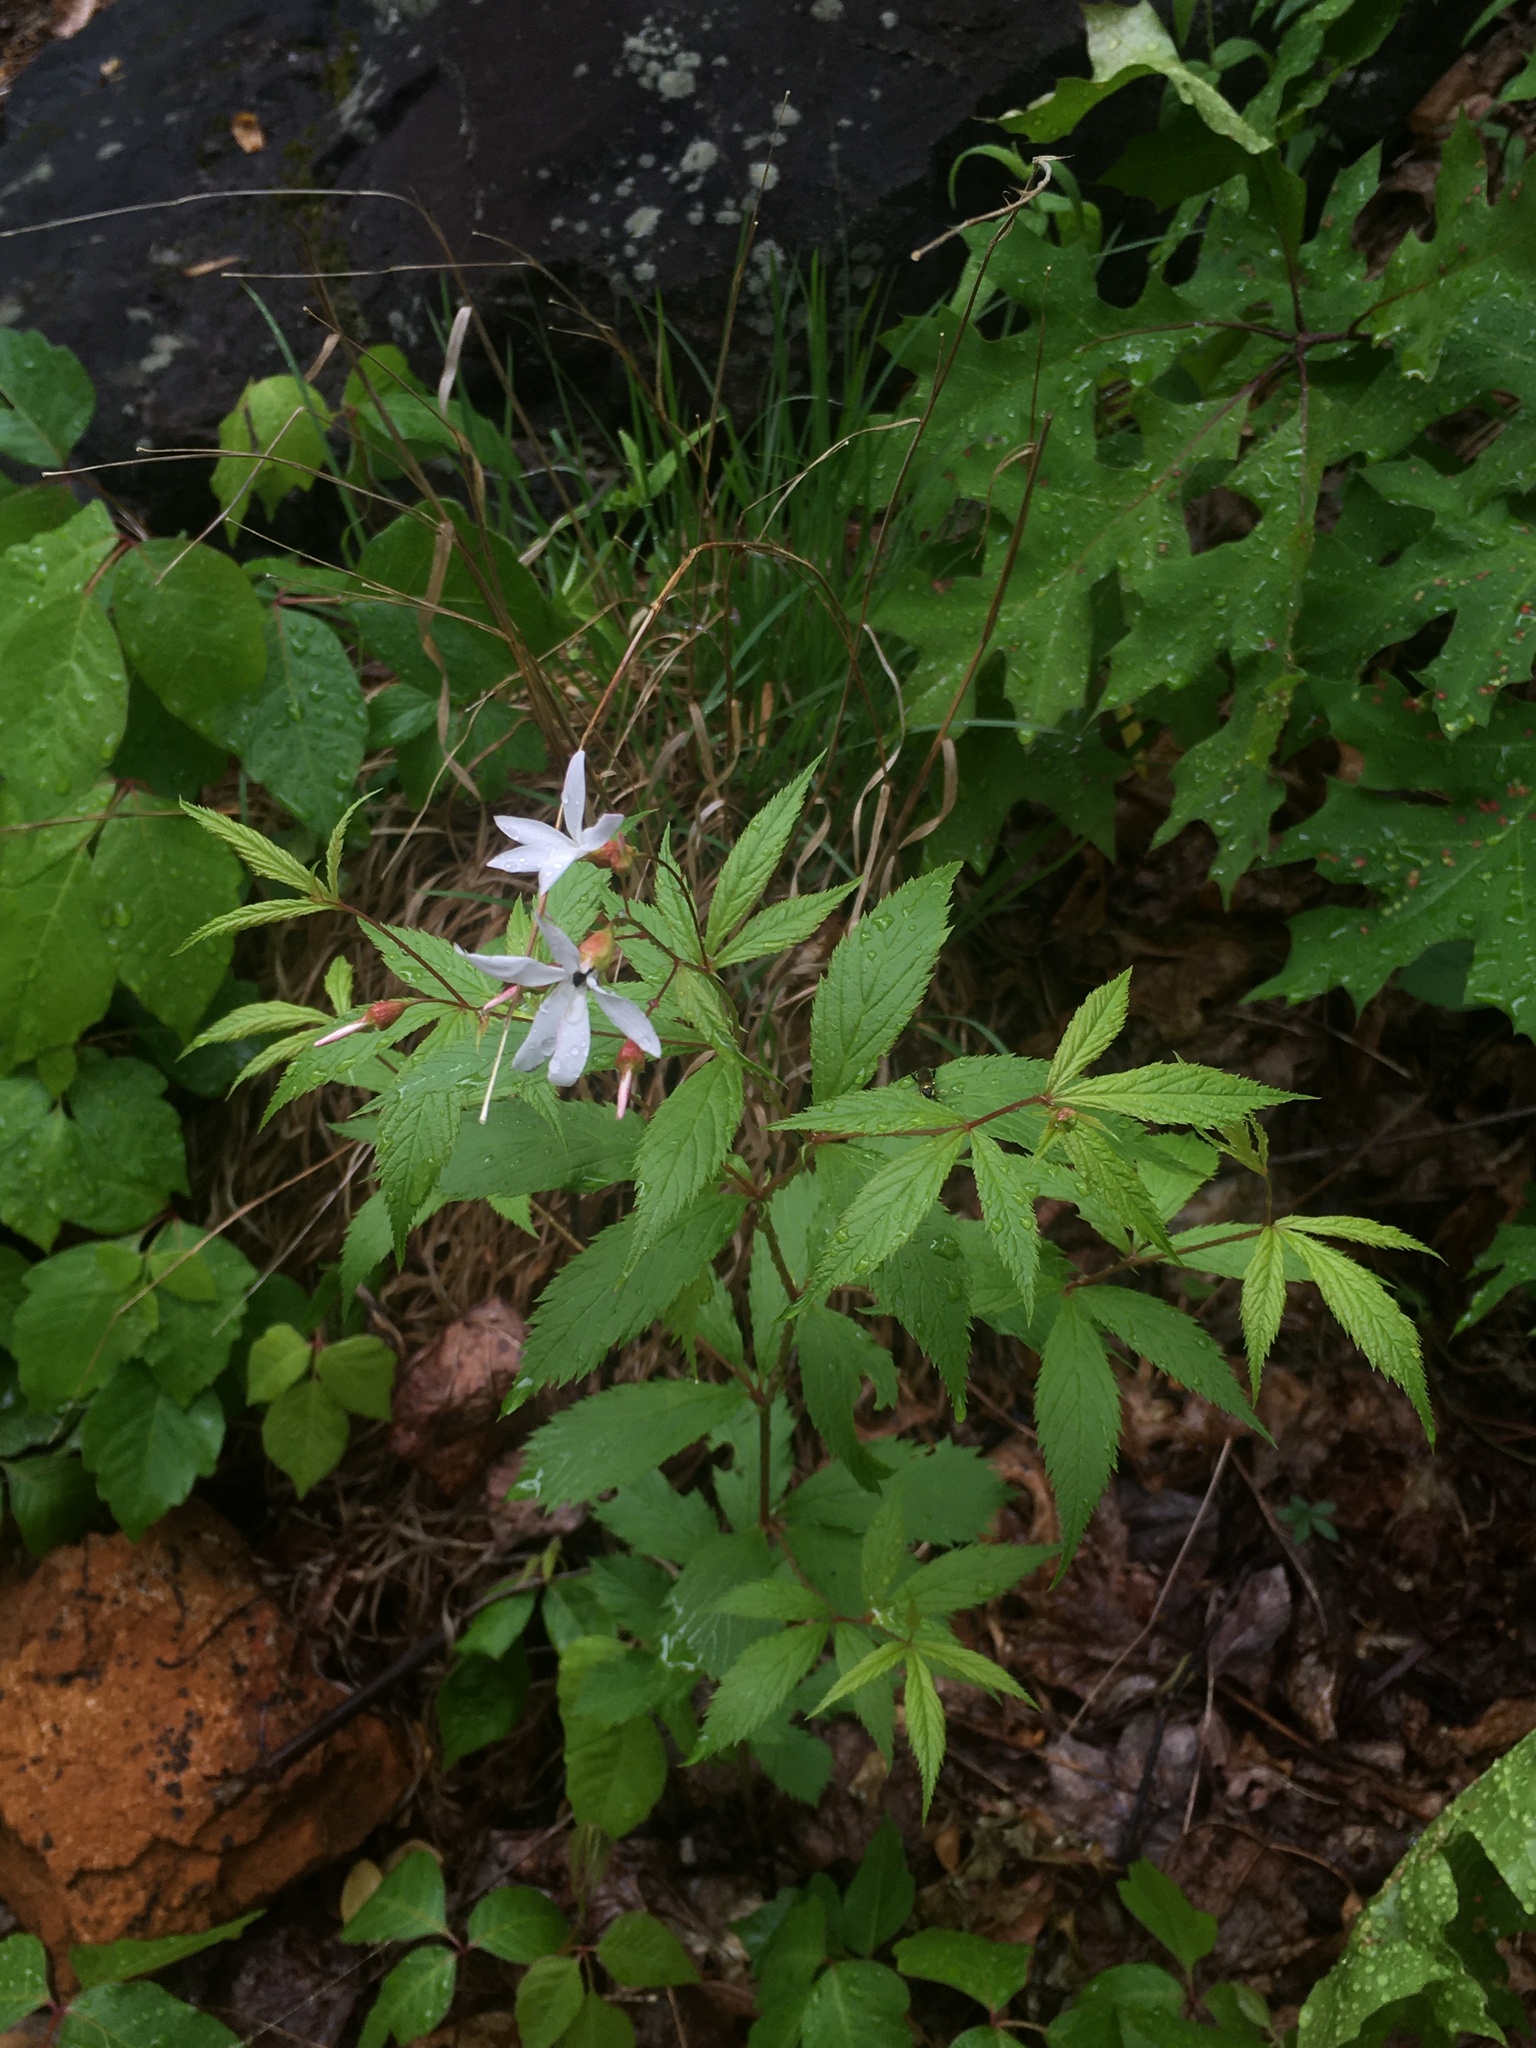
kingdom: Plantae
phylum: Tracheophyta
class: Magnoliopsida
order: Rosales
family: Rosaceae
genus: Gillenia
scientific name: Gillenia trifoliata
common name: Bowman's-root
